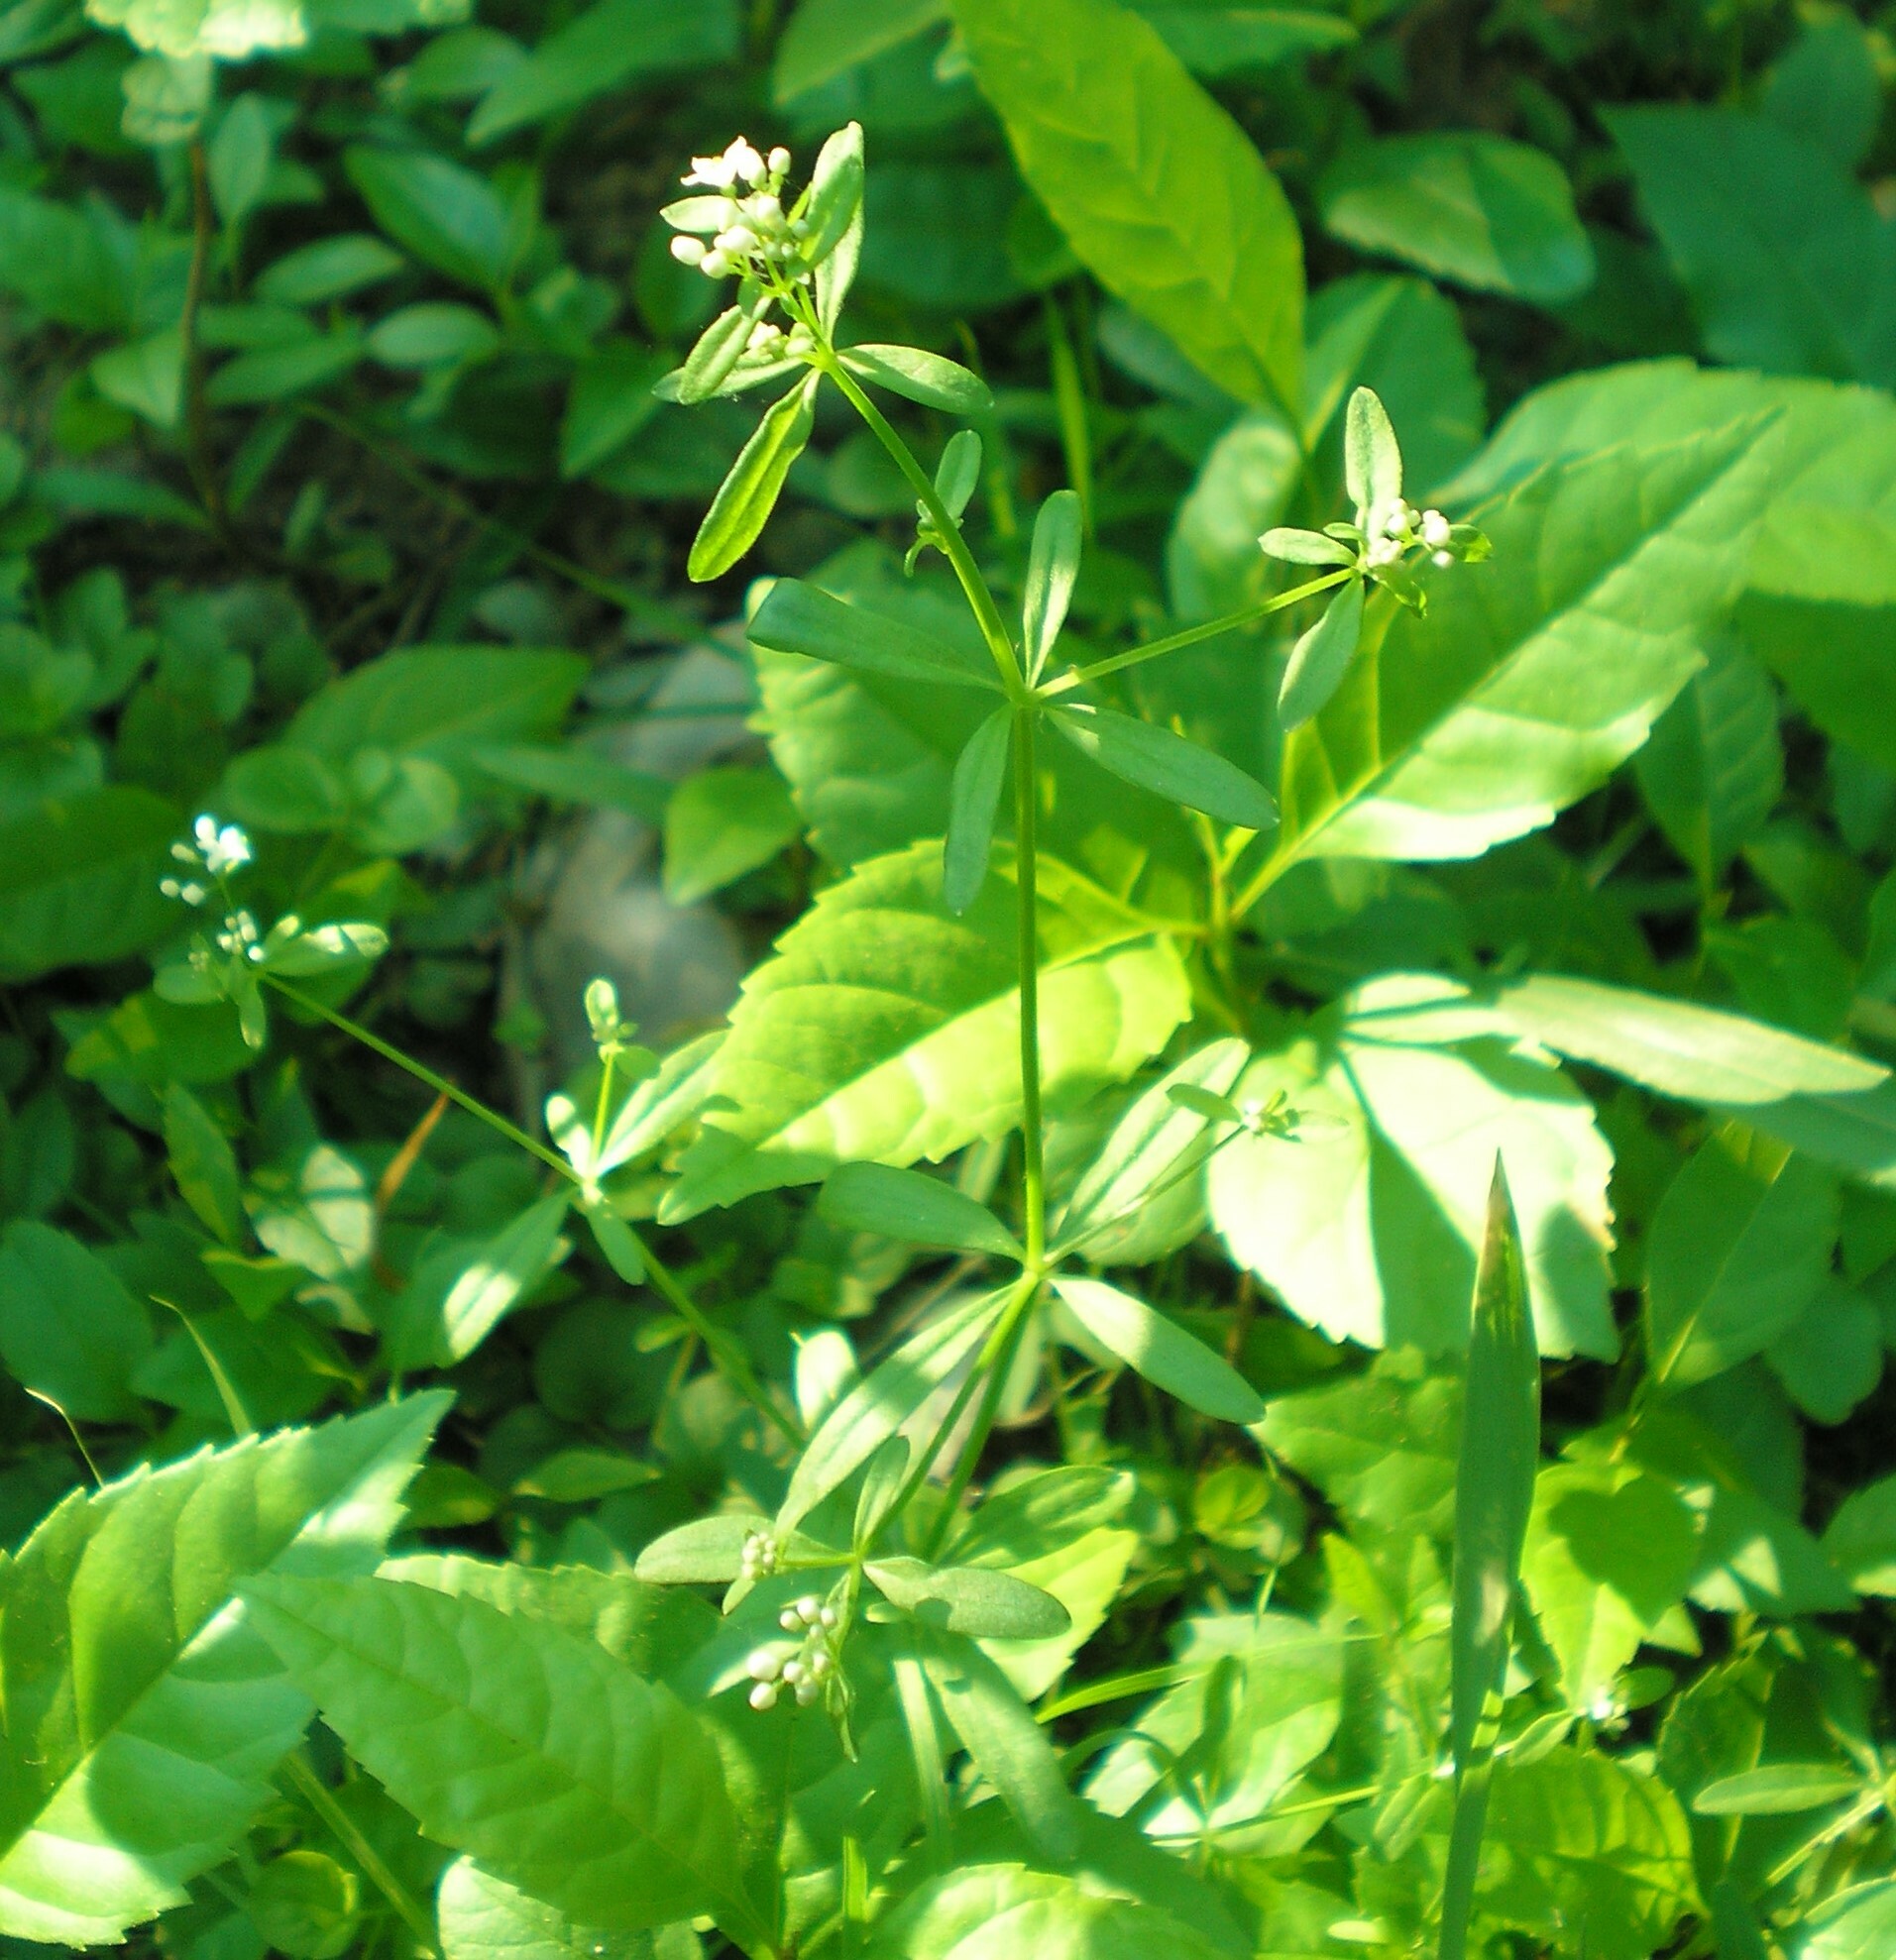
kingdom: Plantae
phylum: Tracheophyta
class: Magnoliopsida
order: Gentianales
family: Rubiaceae
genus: Galium
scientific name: Galium palustre
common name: Common marsh-bedstraw
